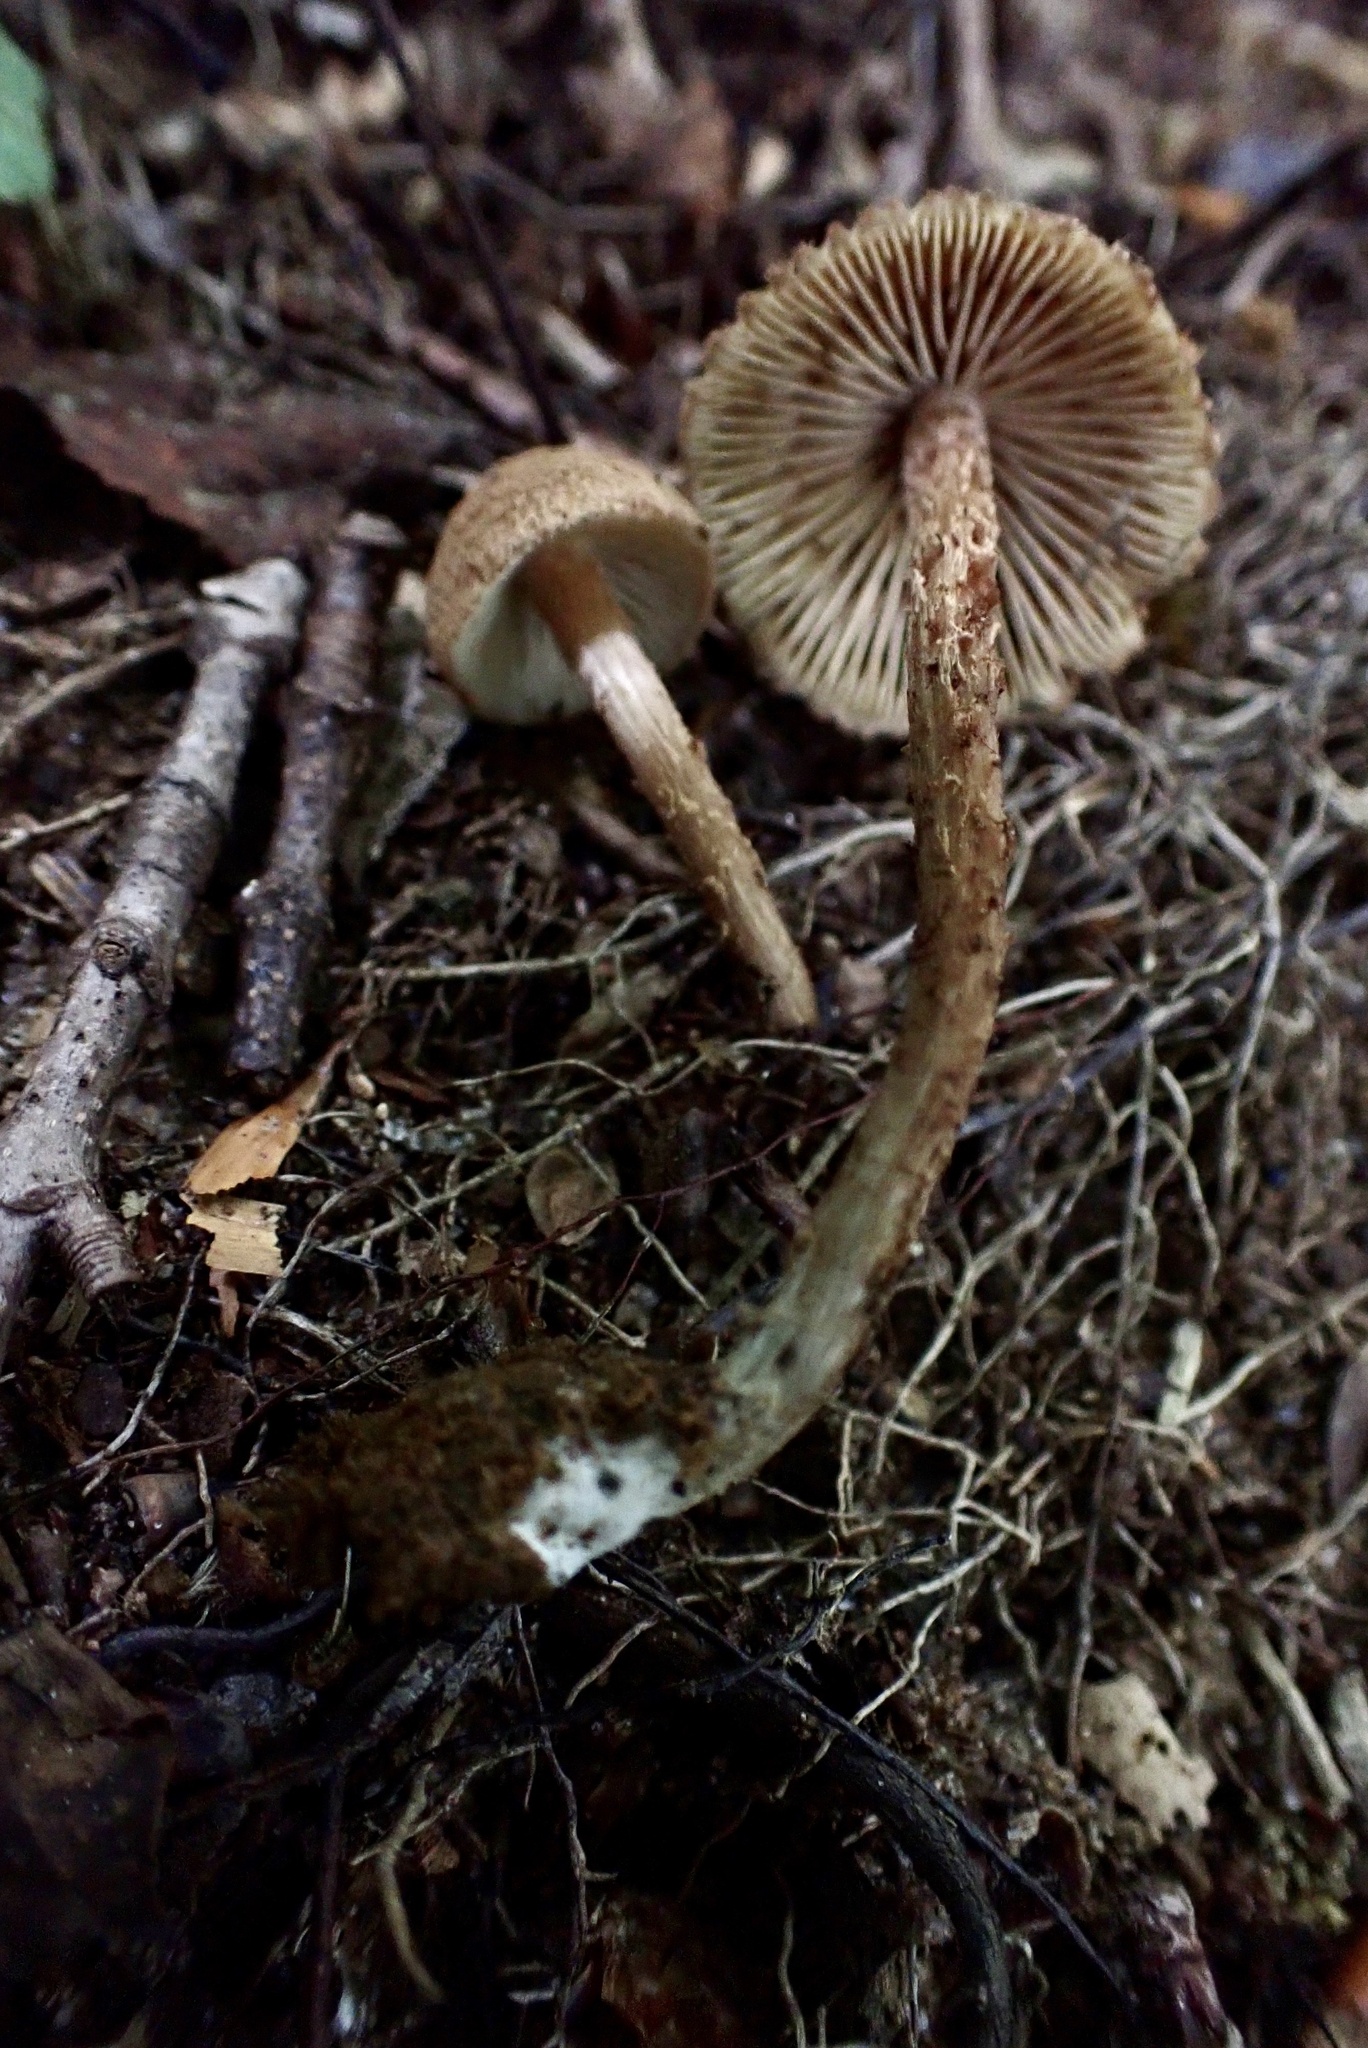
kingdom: Fungi
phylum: Basidiomycota
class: Agaricomycetes
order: Agaricales
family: Inocybaceae
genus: Inosperma
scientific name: Inosperma mutatum
